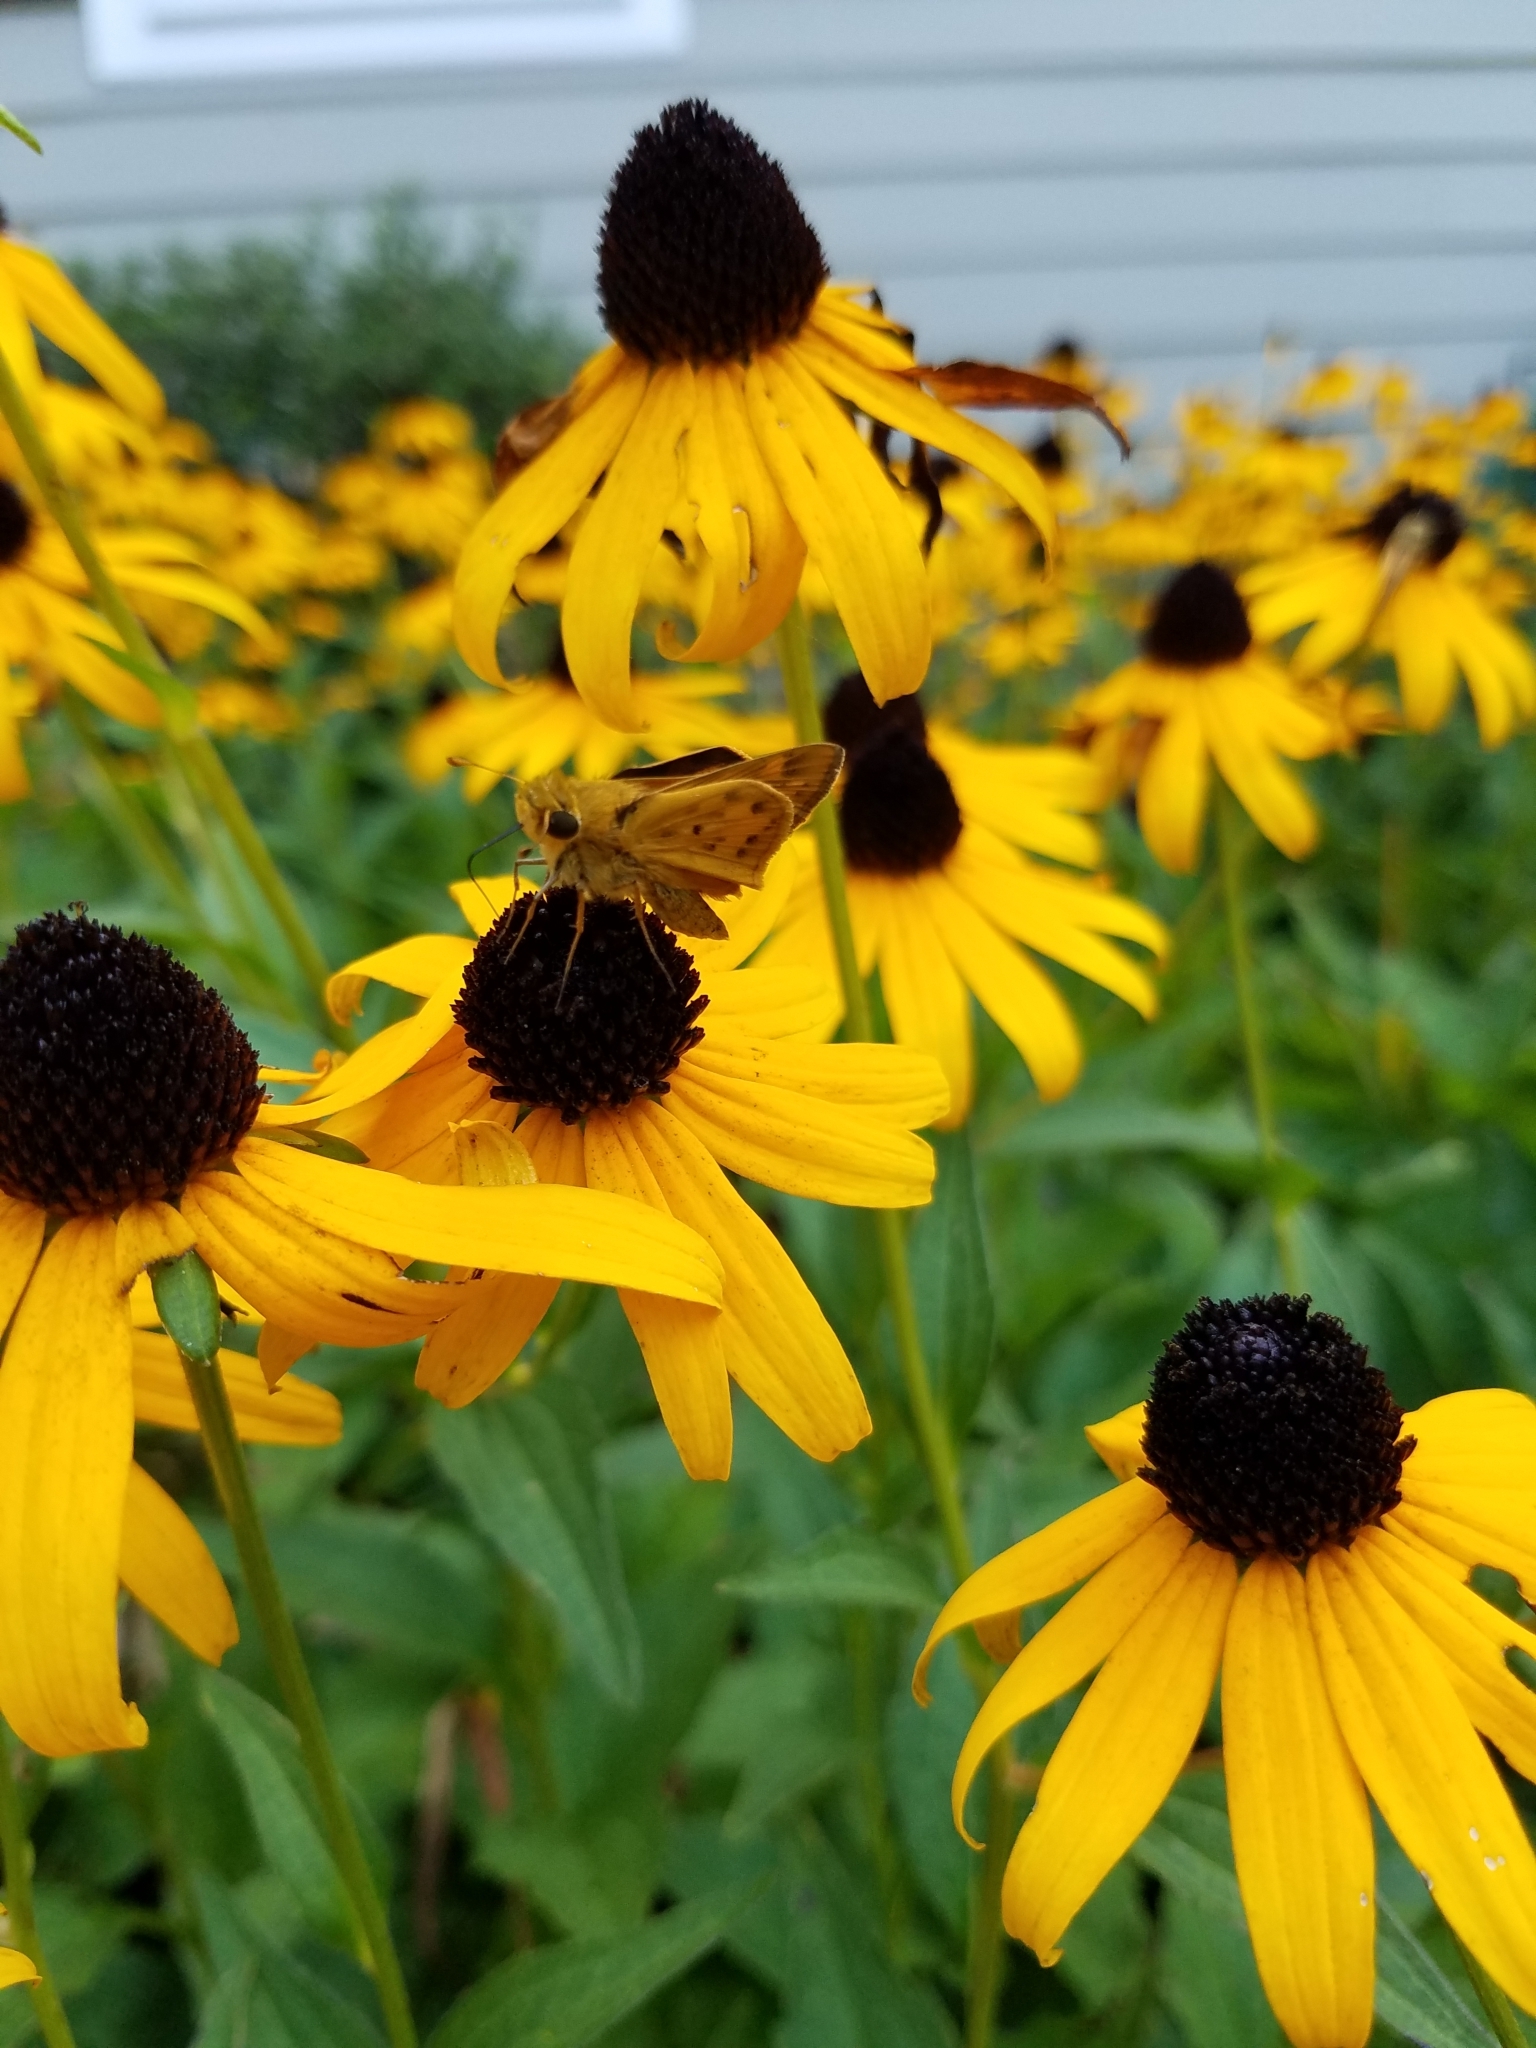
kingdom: Animalia
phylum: Arthropoda
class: Insecta
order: Lepidoptera
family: Hesperiidae
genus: Hylephila
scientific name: Hylephila phyleus
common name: Fiery skipper
